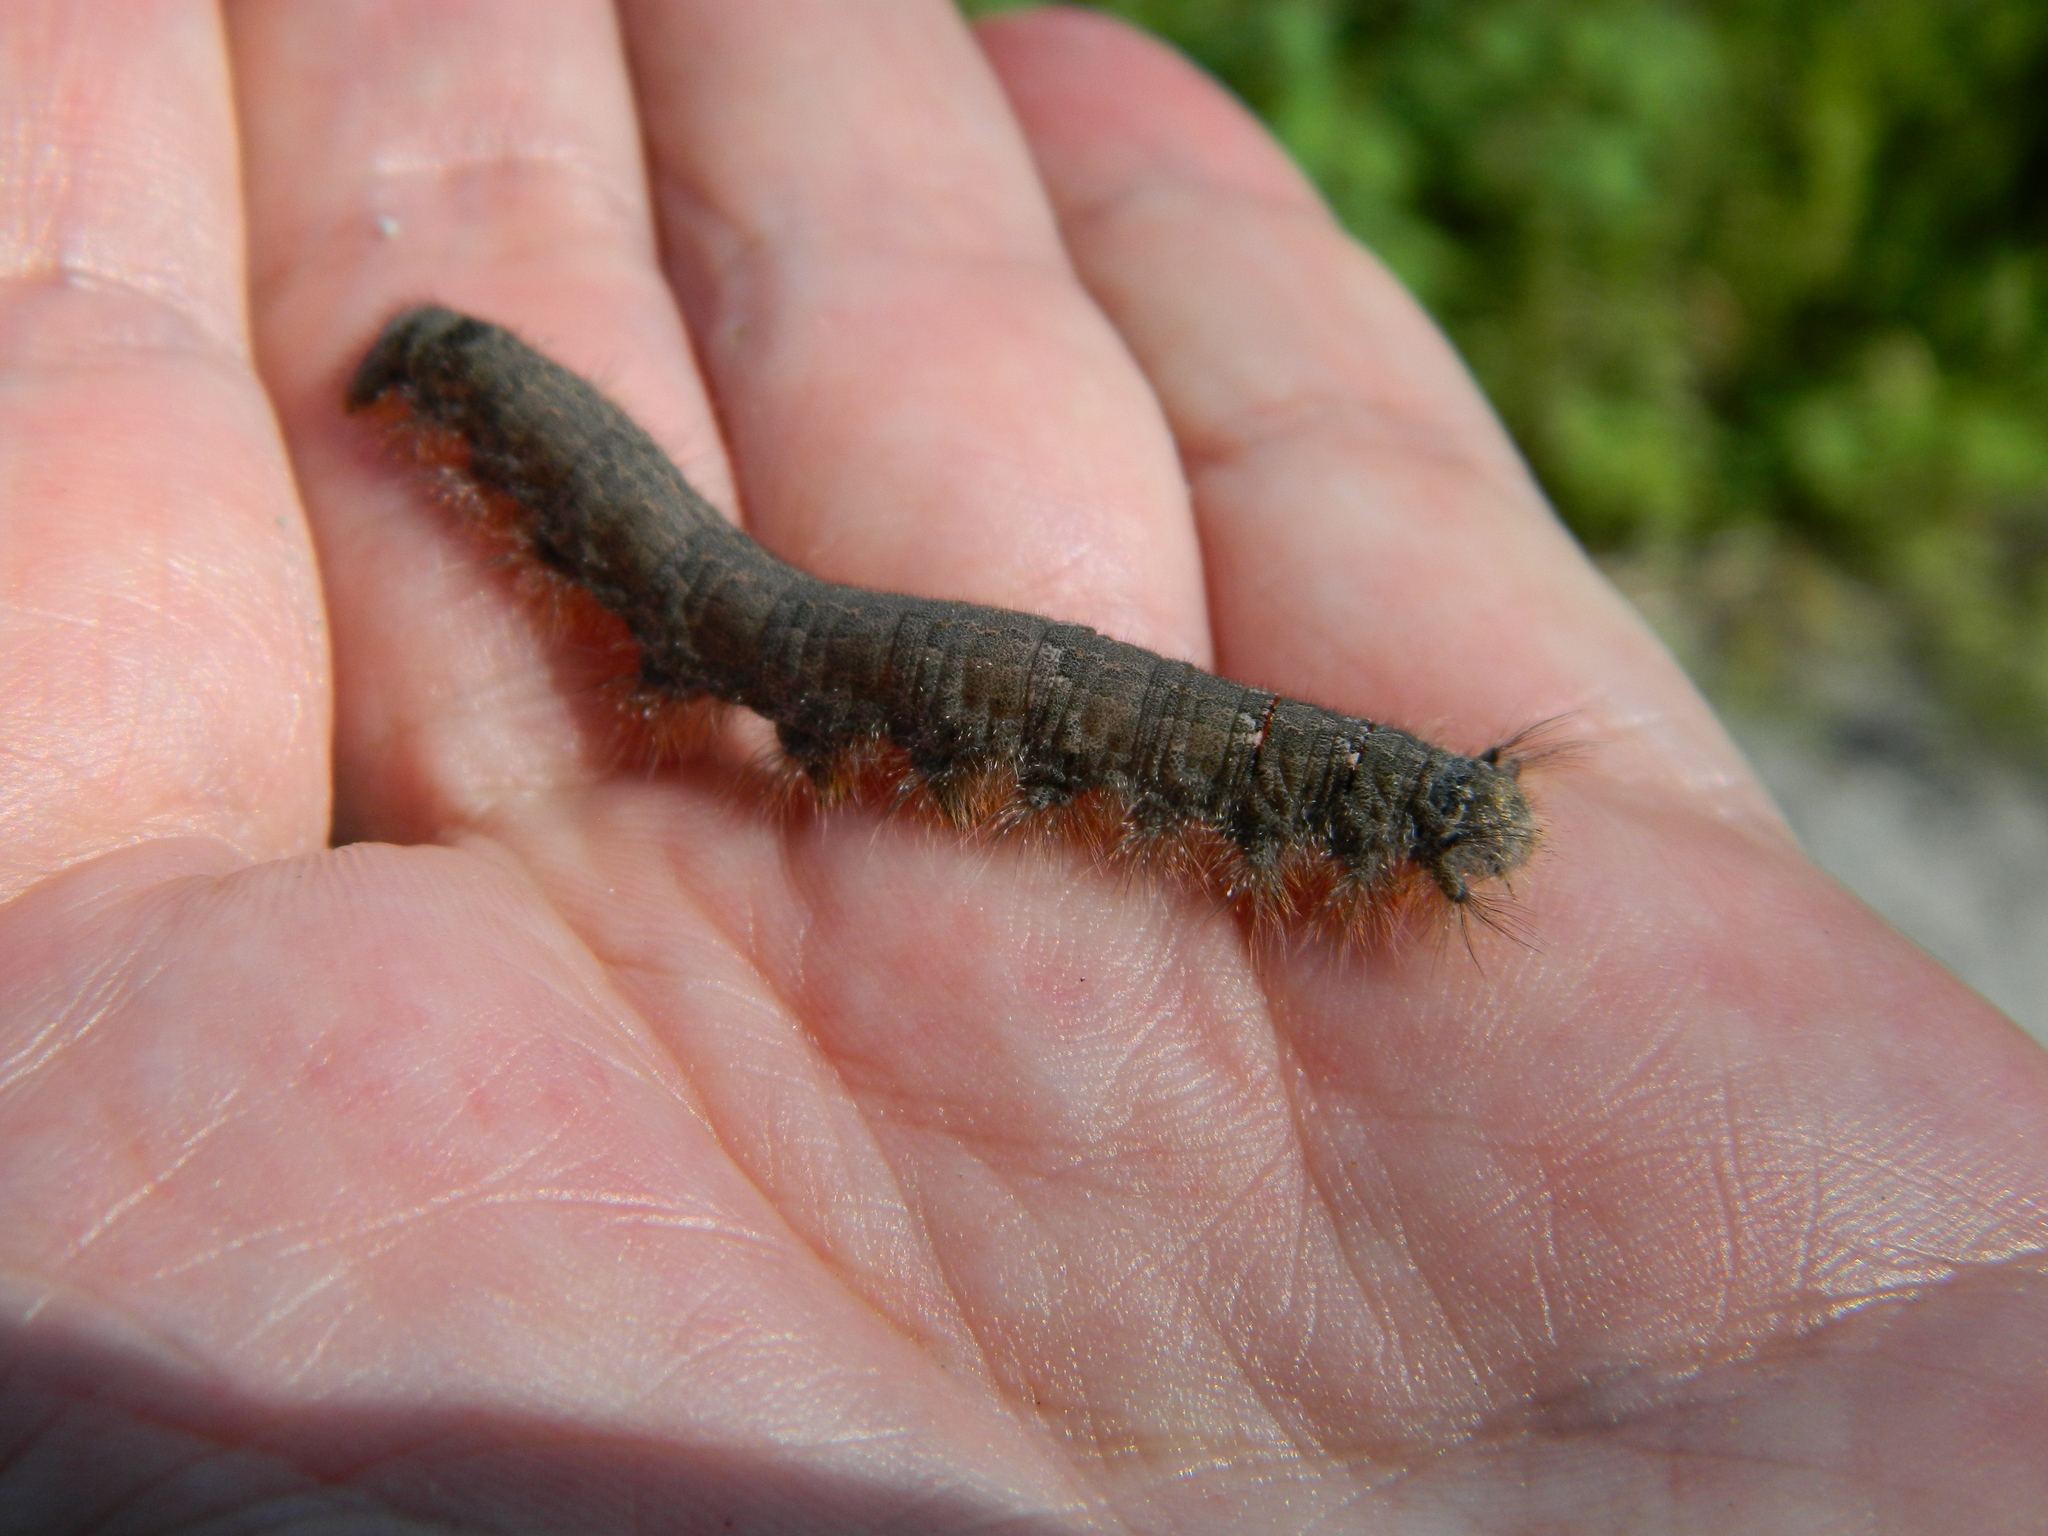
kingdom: Animalia
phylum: Arthropoda
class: Insecta
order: Lepidoptera
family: Lasiocampidae
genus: Phyllodesma
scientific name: Phyllodesma americana
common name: American lappet moth
